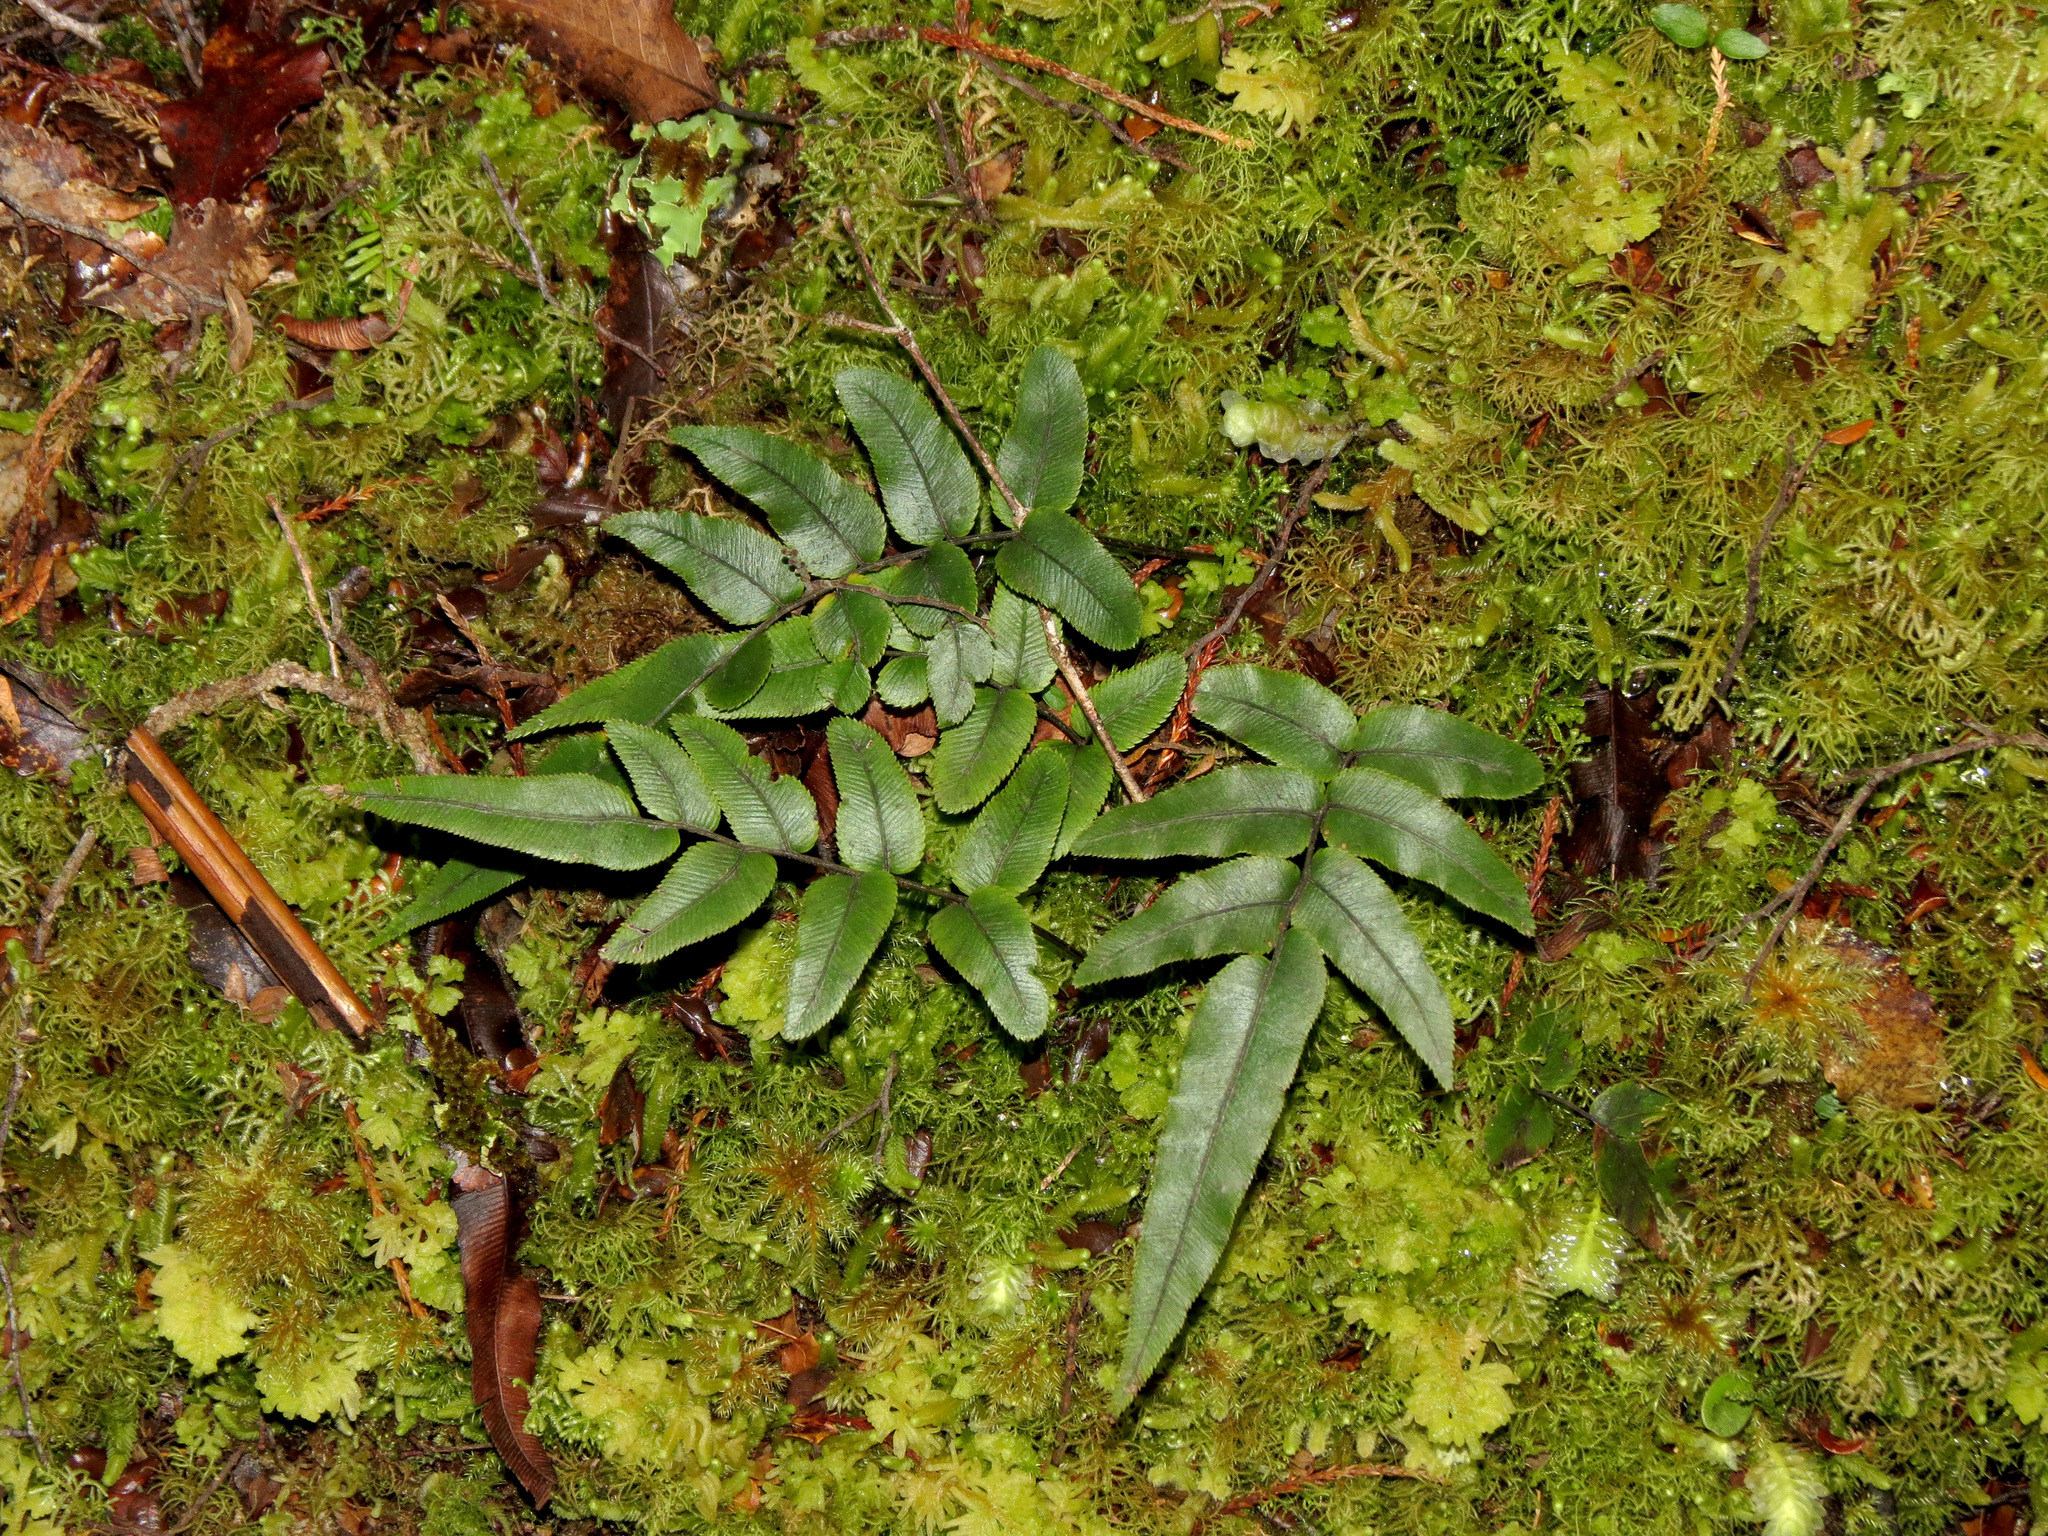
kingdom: Plantae
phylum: Tracheophyta
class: Polypodiopsida
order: Polypodiales
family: Blechnaceae
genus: Parablechnum
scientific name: Parablechnum procerum
